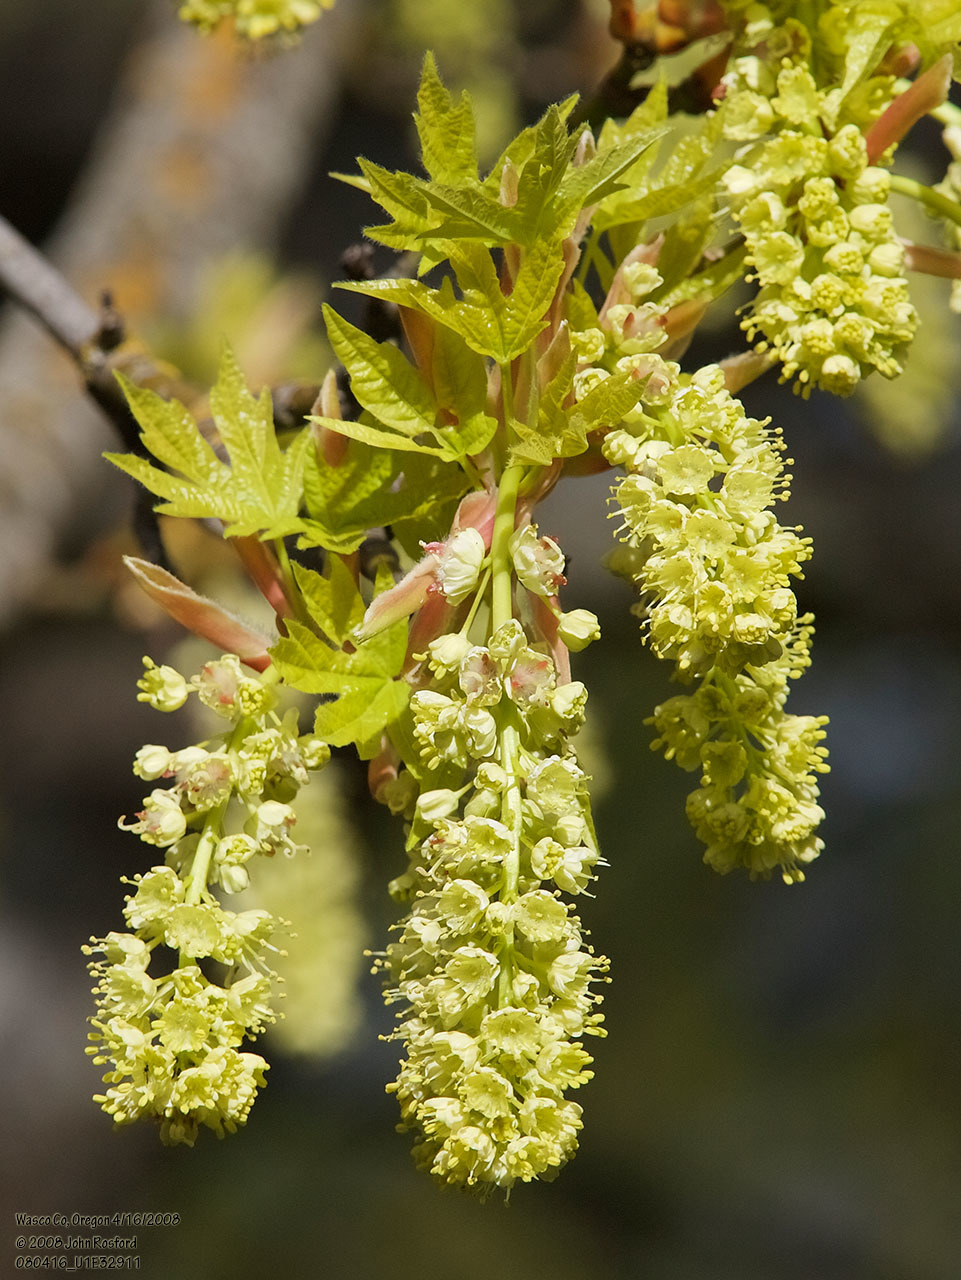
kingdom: Plantae
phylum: Tracheophyta
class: Magnoliopsida
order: Sapindales
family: Sapindaceae
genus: Acer
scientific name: Acer macrophyllum
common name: Oregon maple
